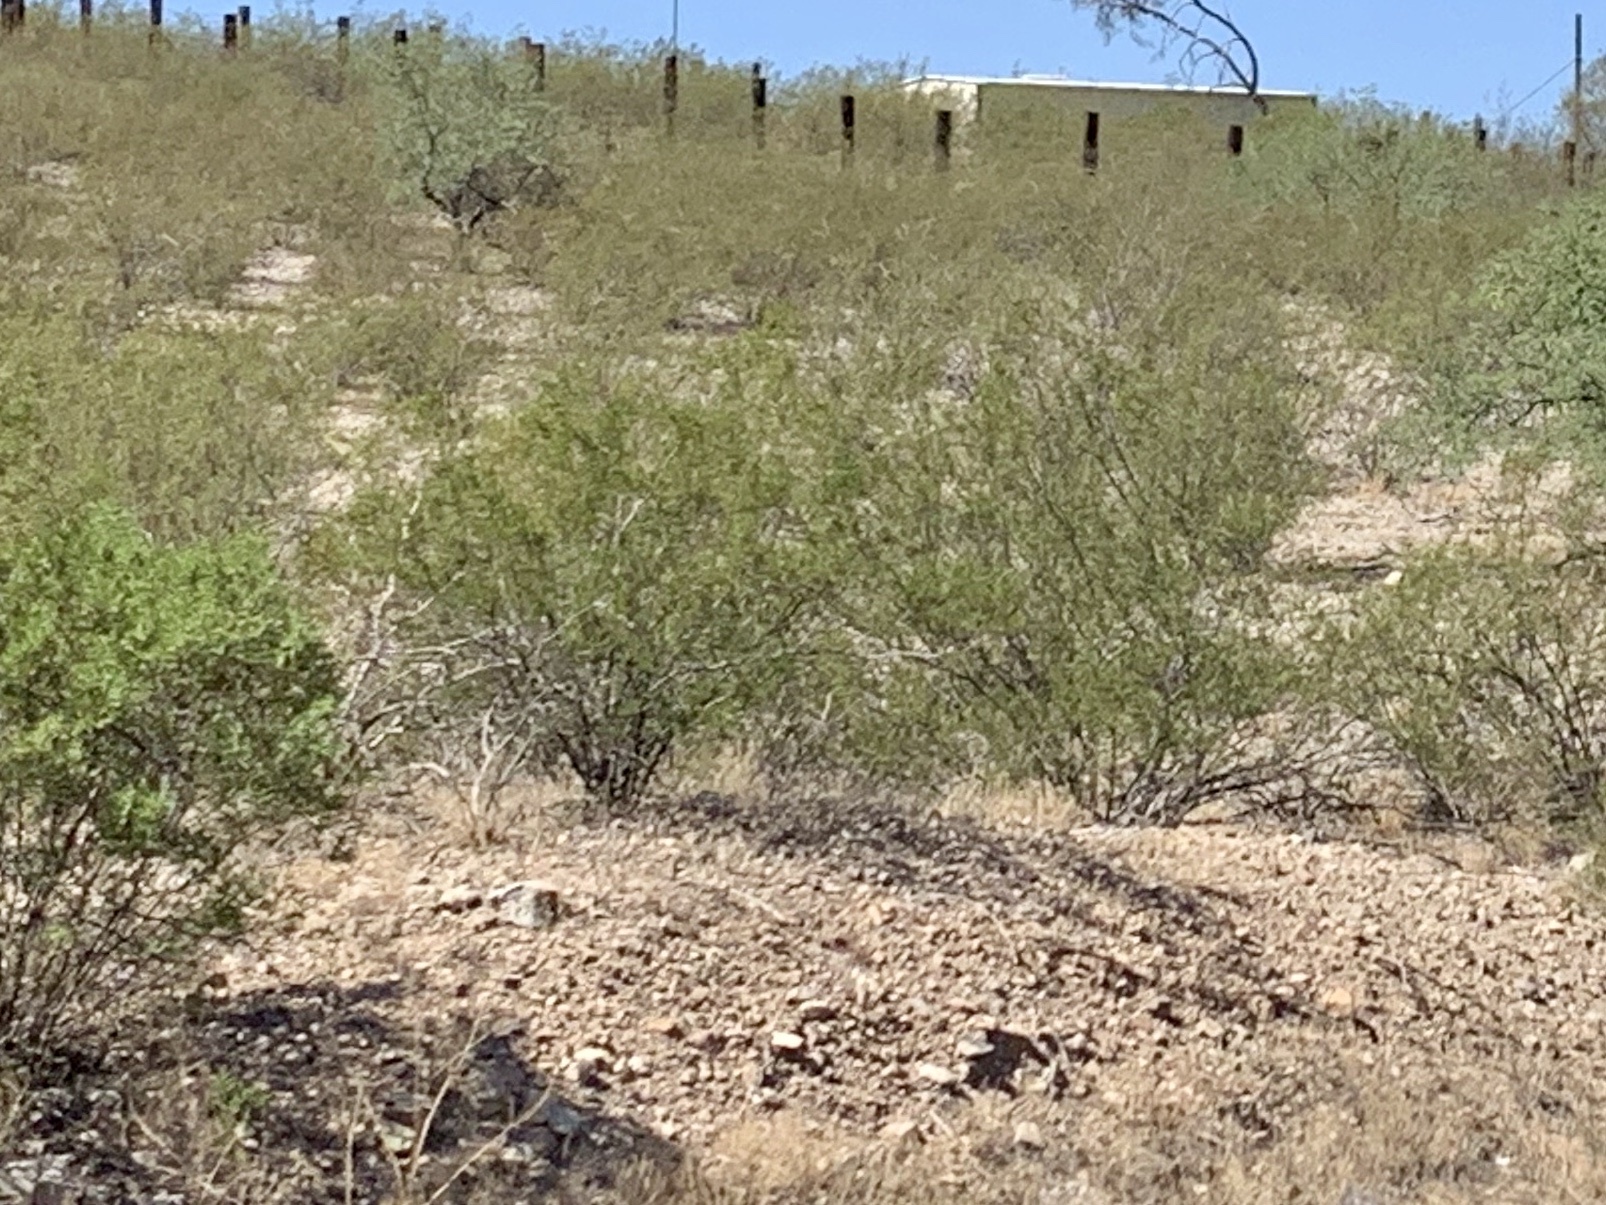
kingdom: Plantae
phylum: Tracheophyta
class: Magnoliopsida
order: Zygophyllales
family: Zygophyllaceae
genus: Larrea
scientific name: Larrea tridentata
